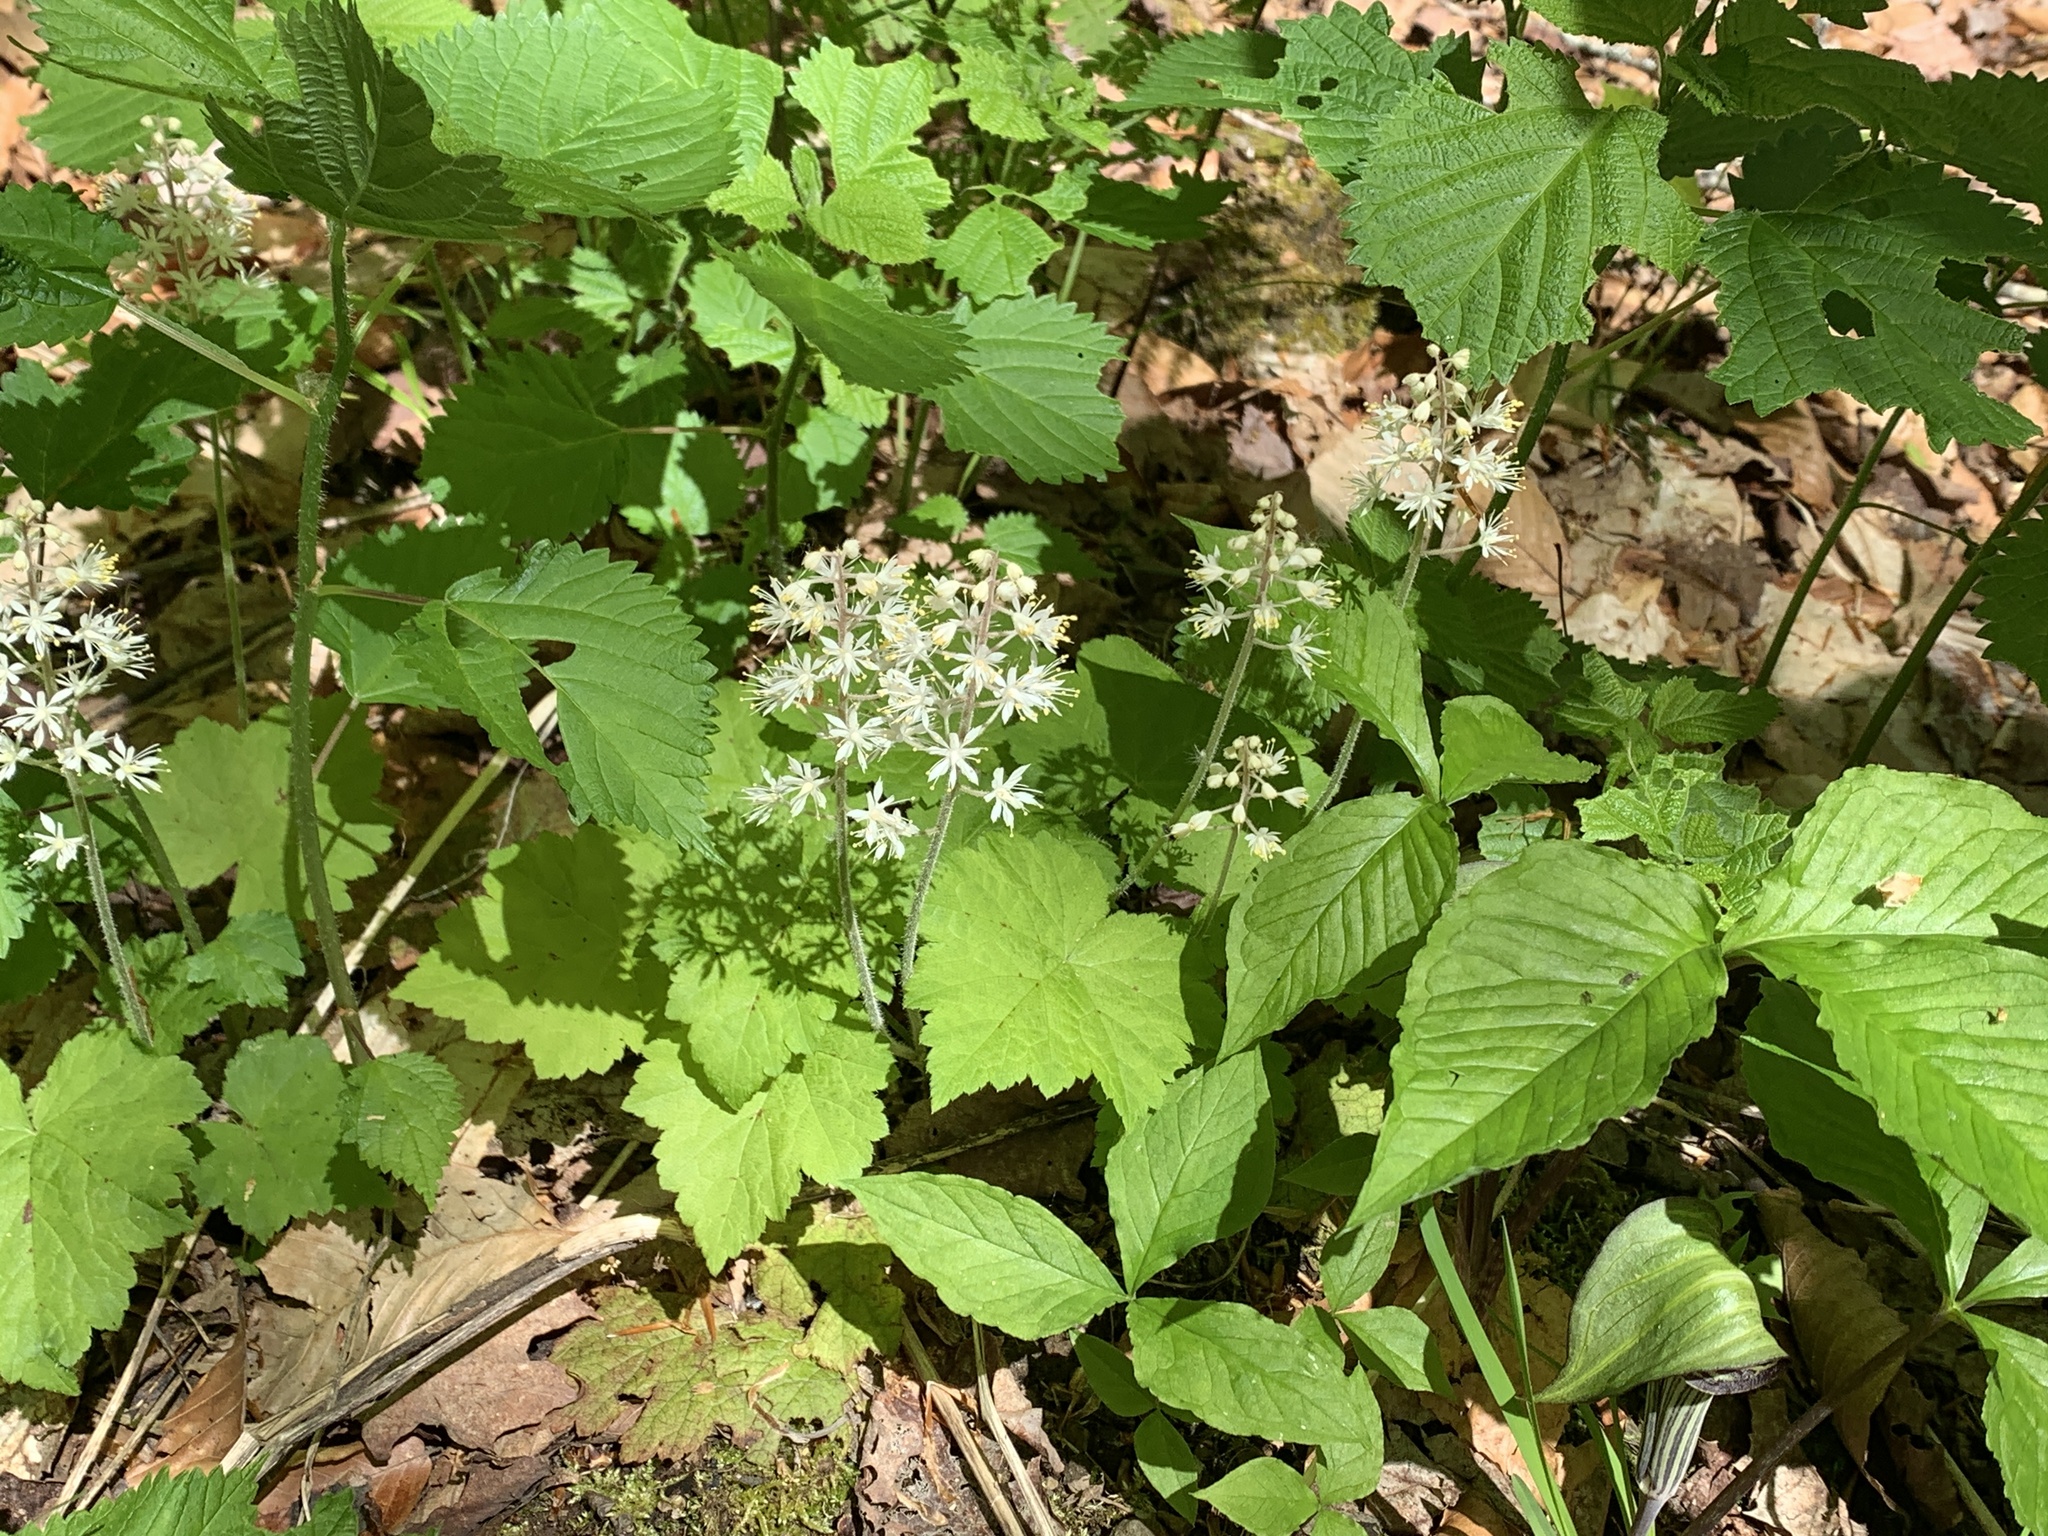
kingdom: Plantae
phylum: Tracheophyta
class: Magnoliopsida
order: Saxifragales
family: Saxifragaceae
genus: Tiarella
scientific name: Tiarella stolonifera
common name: Stoloniferous foamflower
